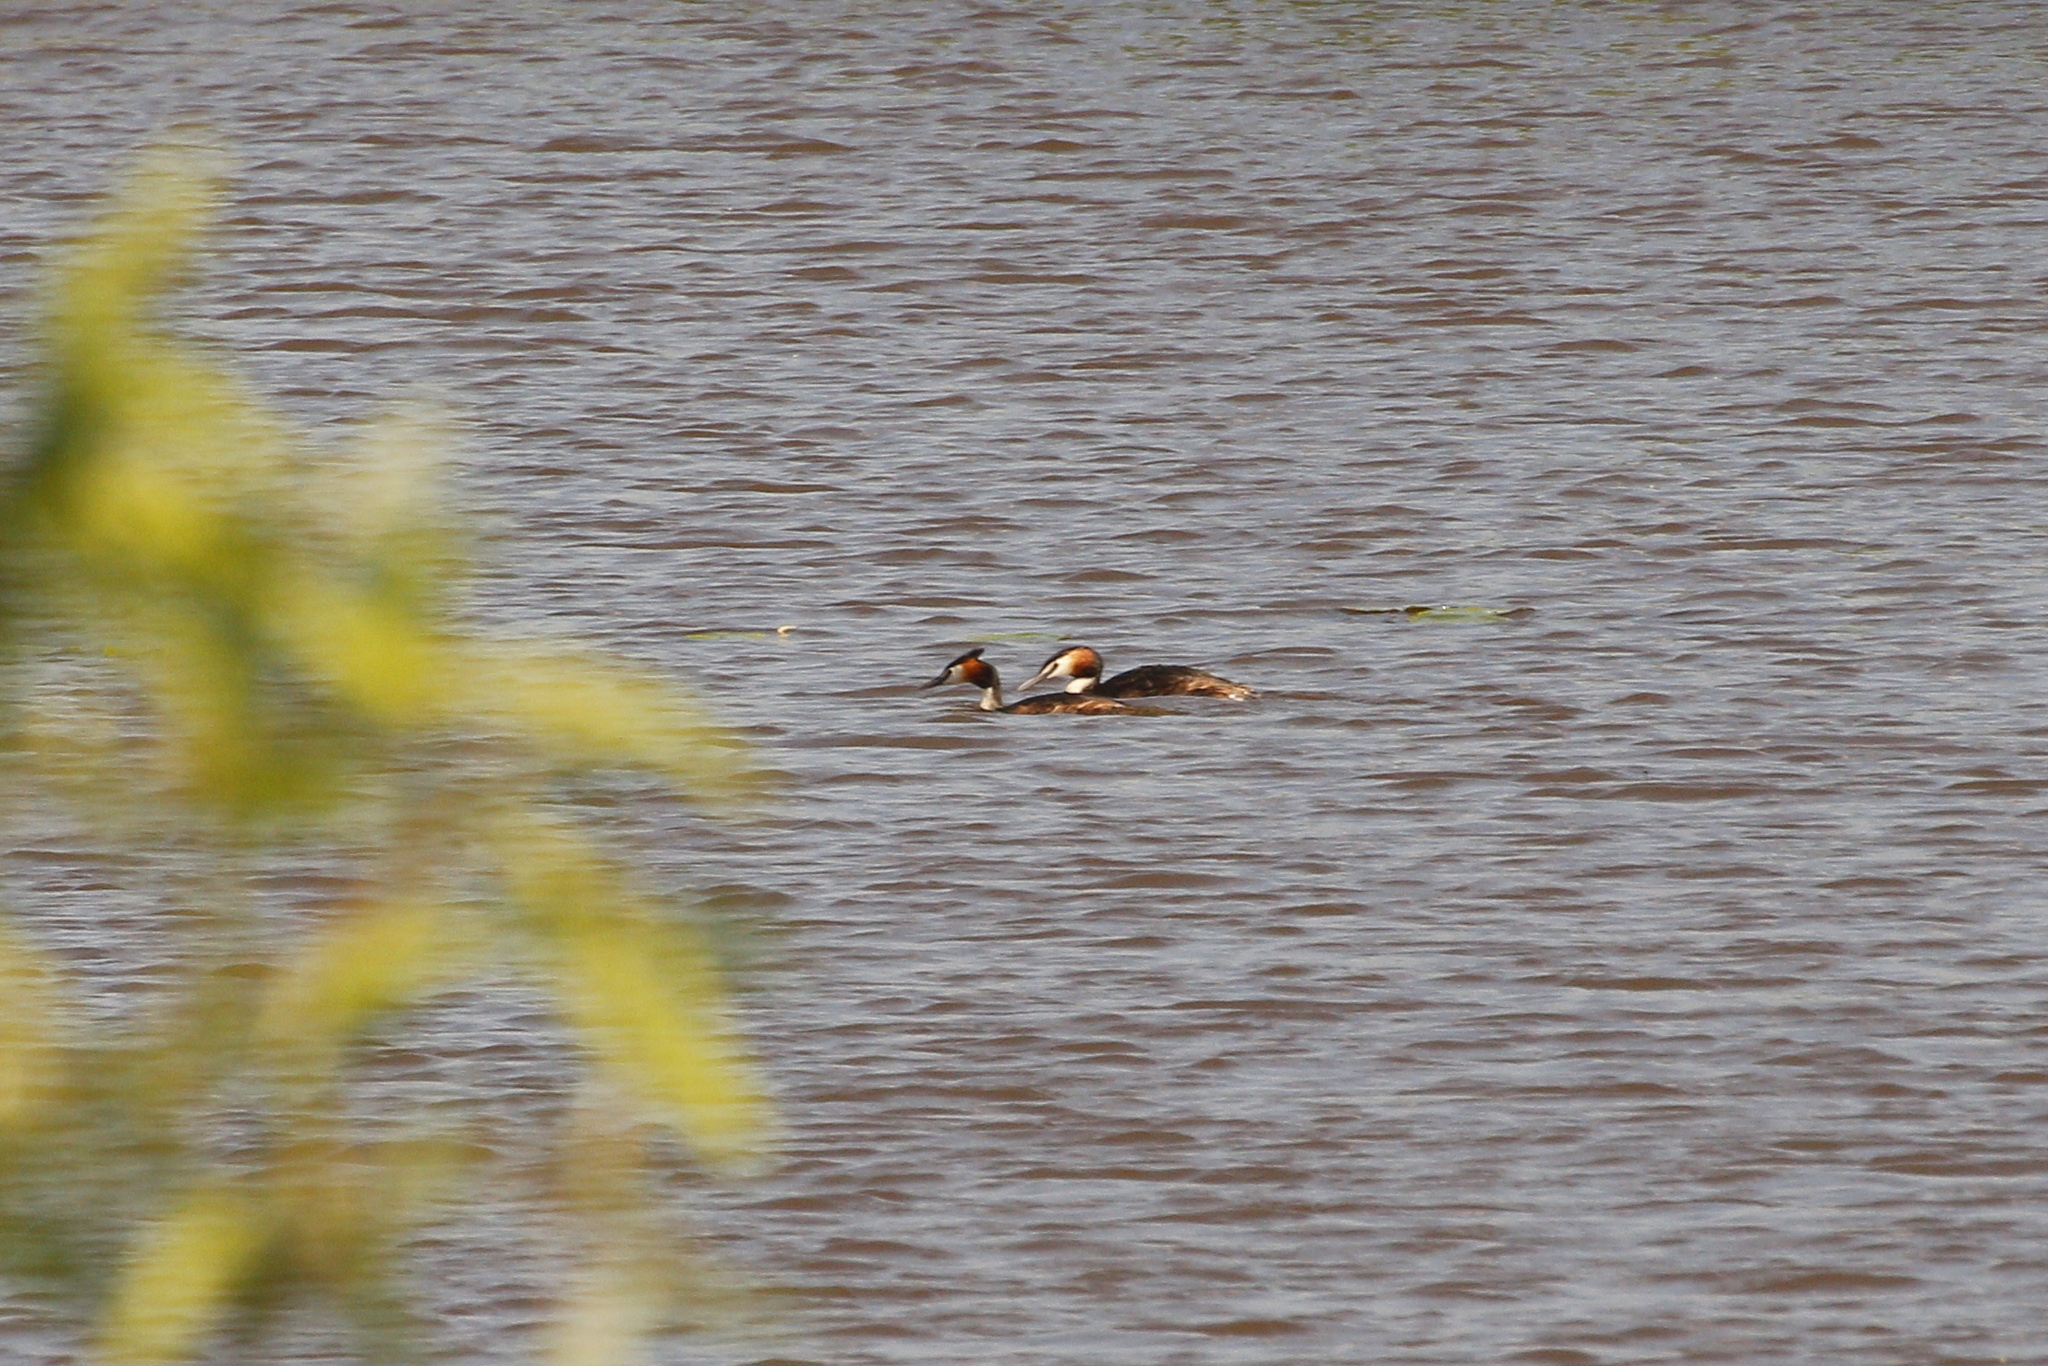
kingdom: Animalia
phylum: Chordata
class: Aves
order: Podicipediformes
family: Podicipedidae
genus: Podiceps
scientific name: Podiceps cristatus
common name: Great crested grebe
